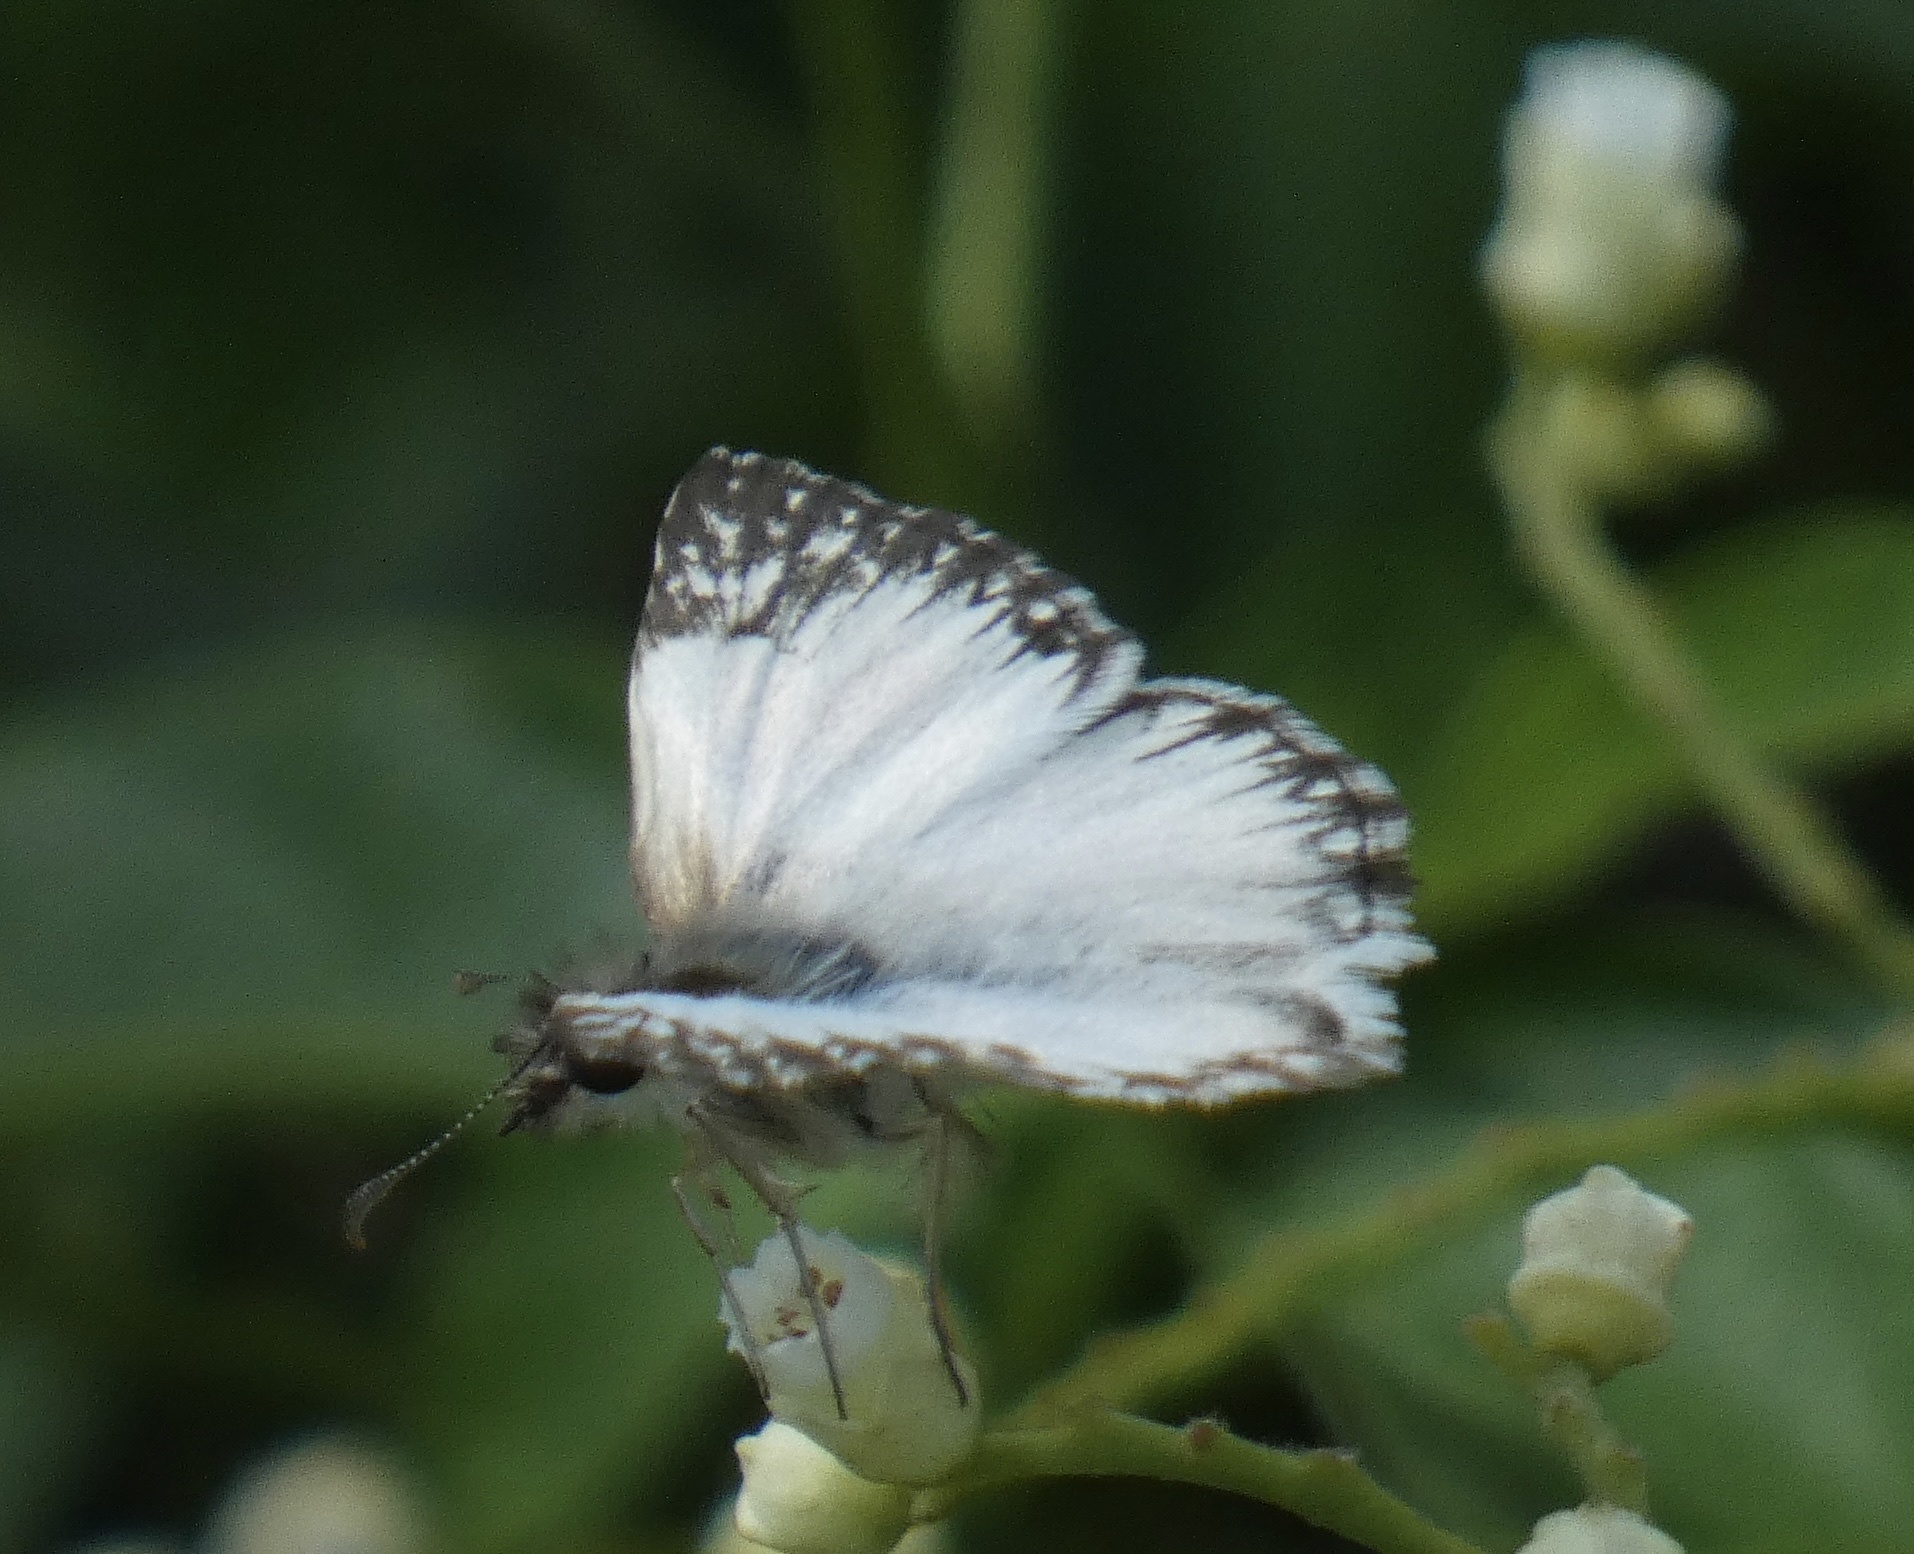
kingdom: Animalia
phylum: Arthropoda
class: Insecta
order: Lepidoptera
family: Hesperiidae
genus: Heliopetes
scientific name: Heliopetes omrina
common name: Stained white-skipper
